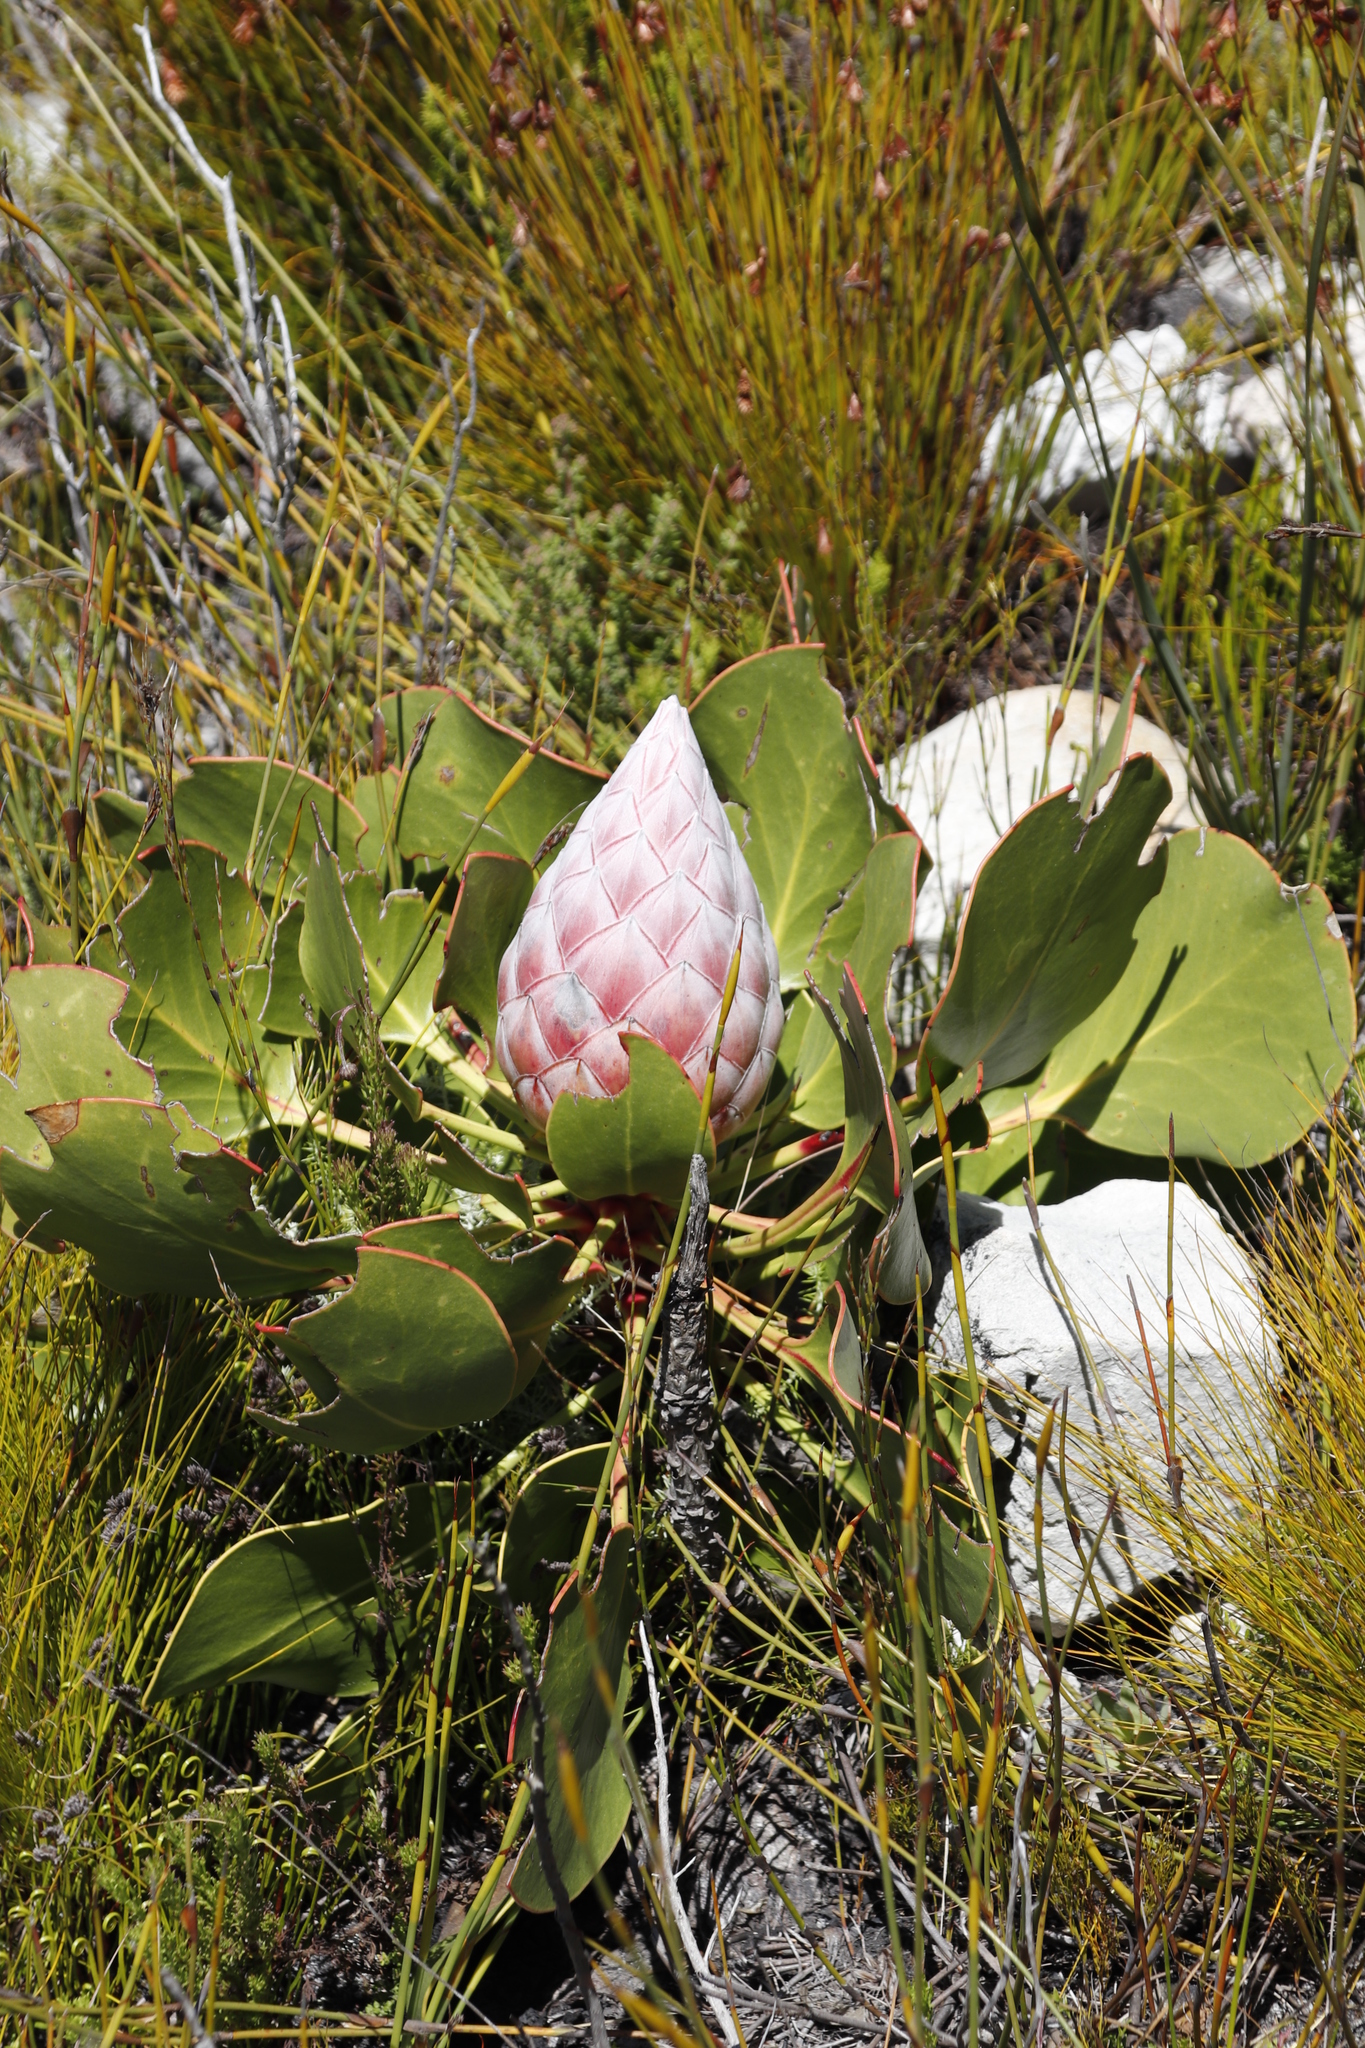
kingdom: Plantae
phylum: Tracheophyta
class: Magnoliopsida
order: Proteales
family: Proteaceae
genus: Protea
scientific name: Protea cynaroides
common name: King protea
